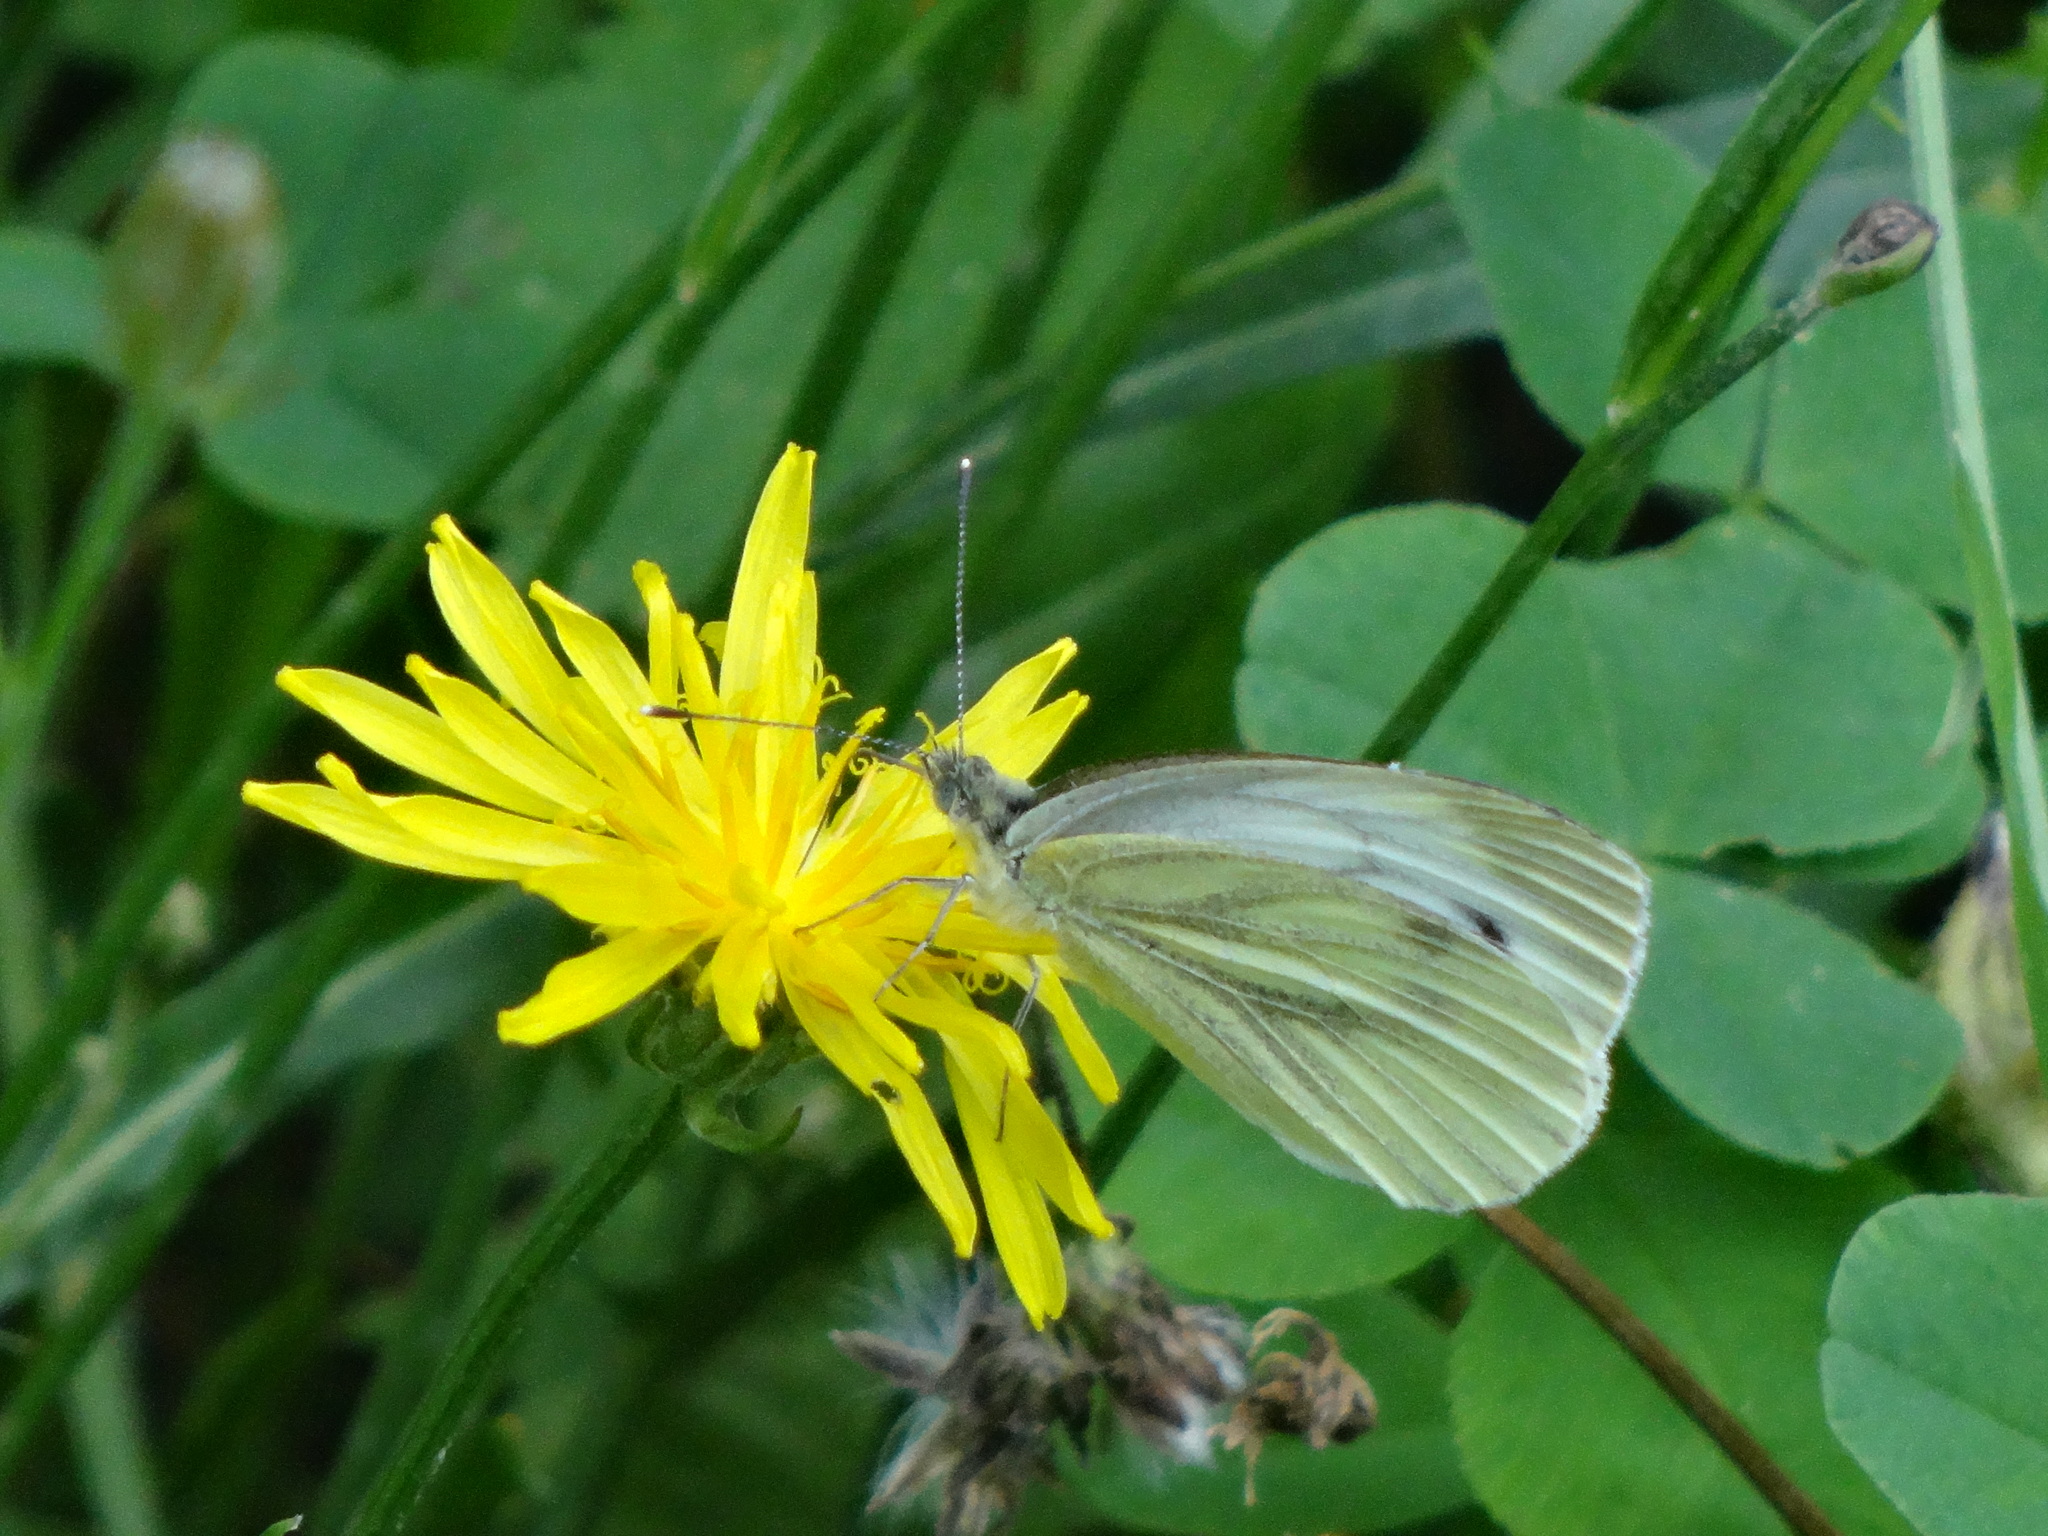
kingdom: Animalia
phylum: Arthropoda
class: Insecta
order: Lepidoptera
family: Pieridae
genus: Pieris
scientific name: Pieris napi
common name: Green-veined white
